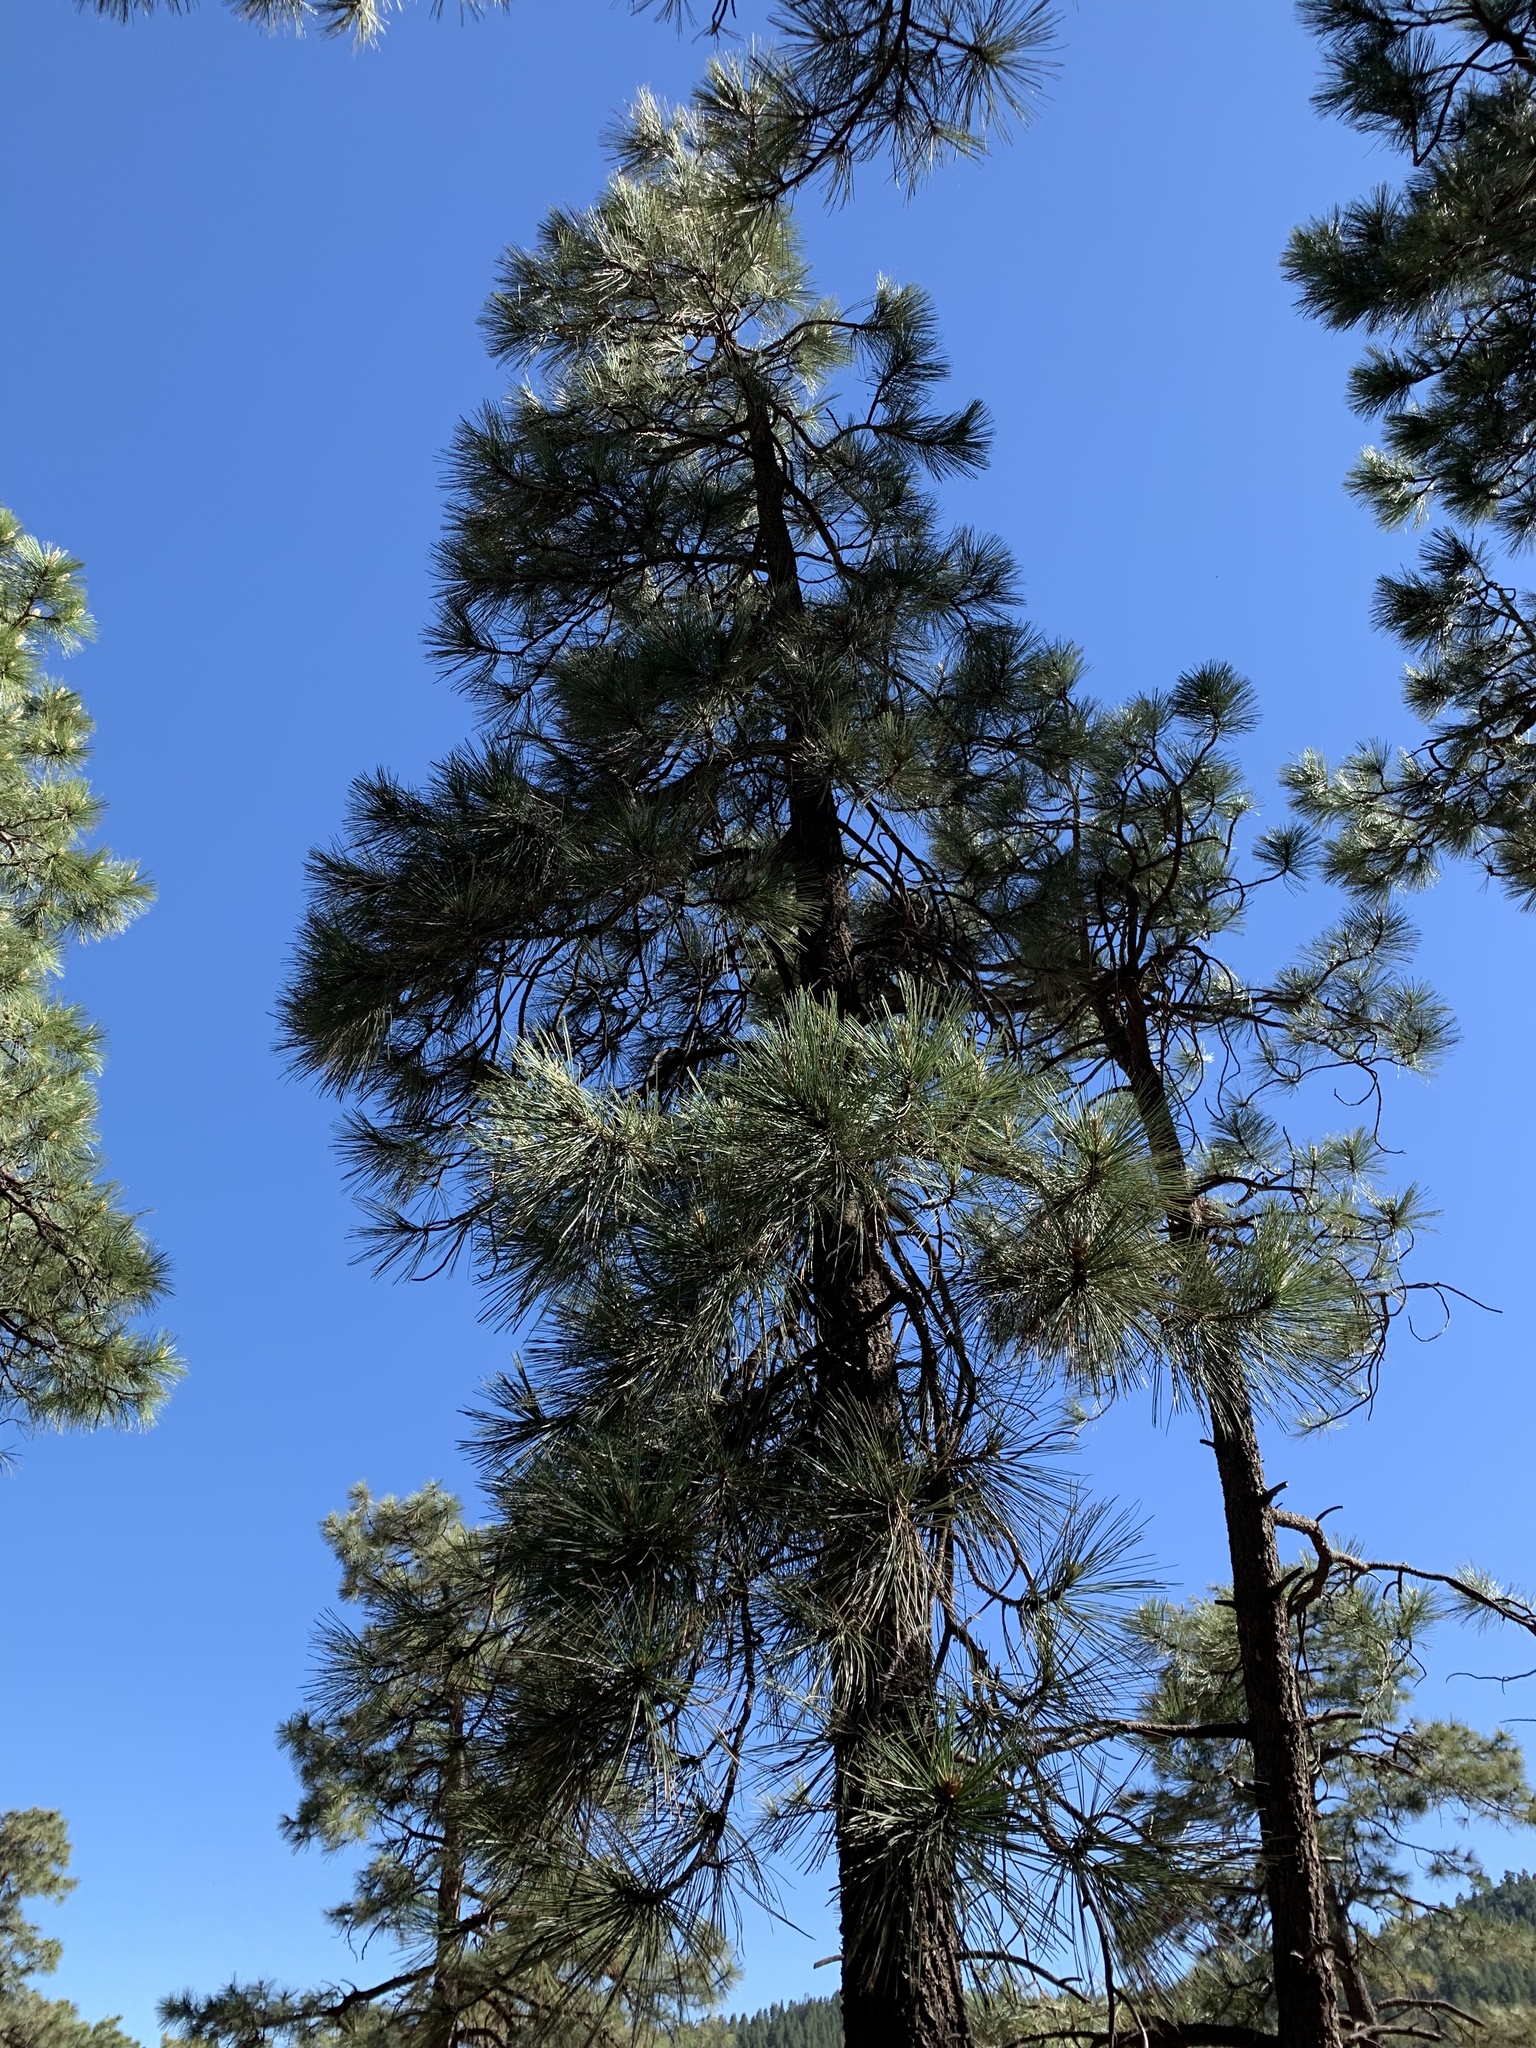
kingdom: Plantae
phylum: Tracheophyta
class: Pinopsida
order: Pinales
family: Pinaceae
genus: Pinus
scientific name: Pinus ponderosa
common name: Western yellow-pine
